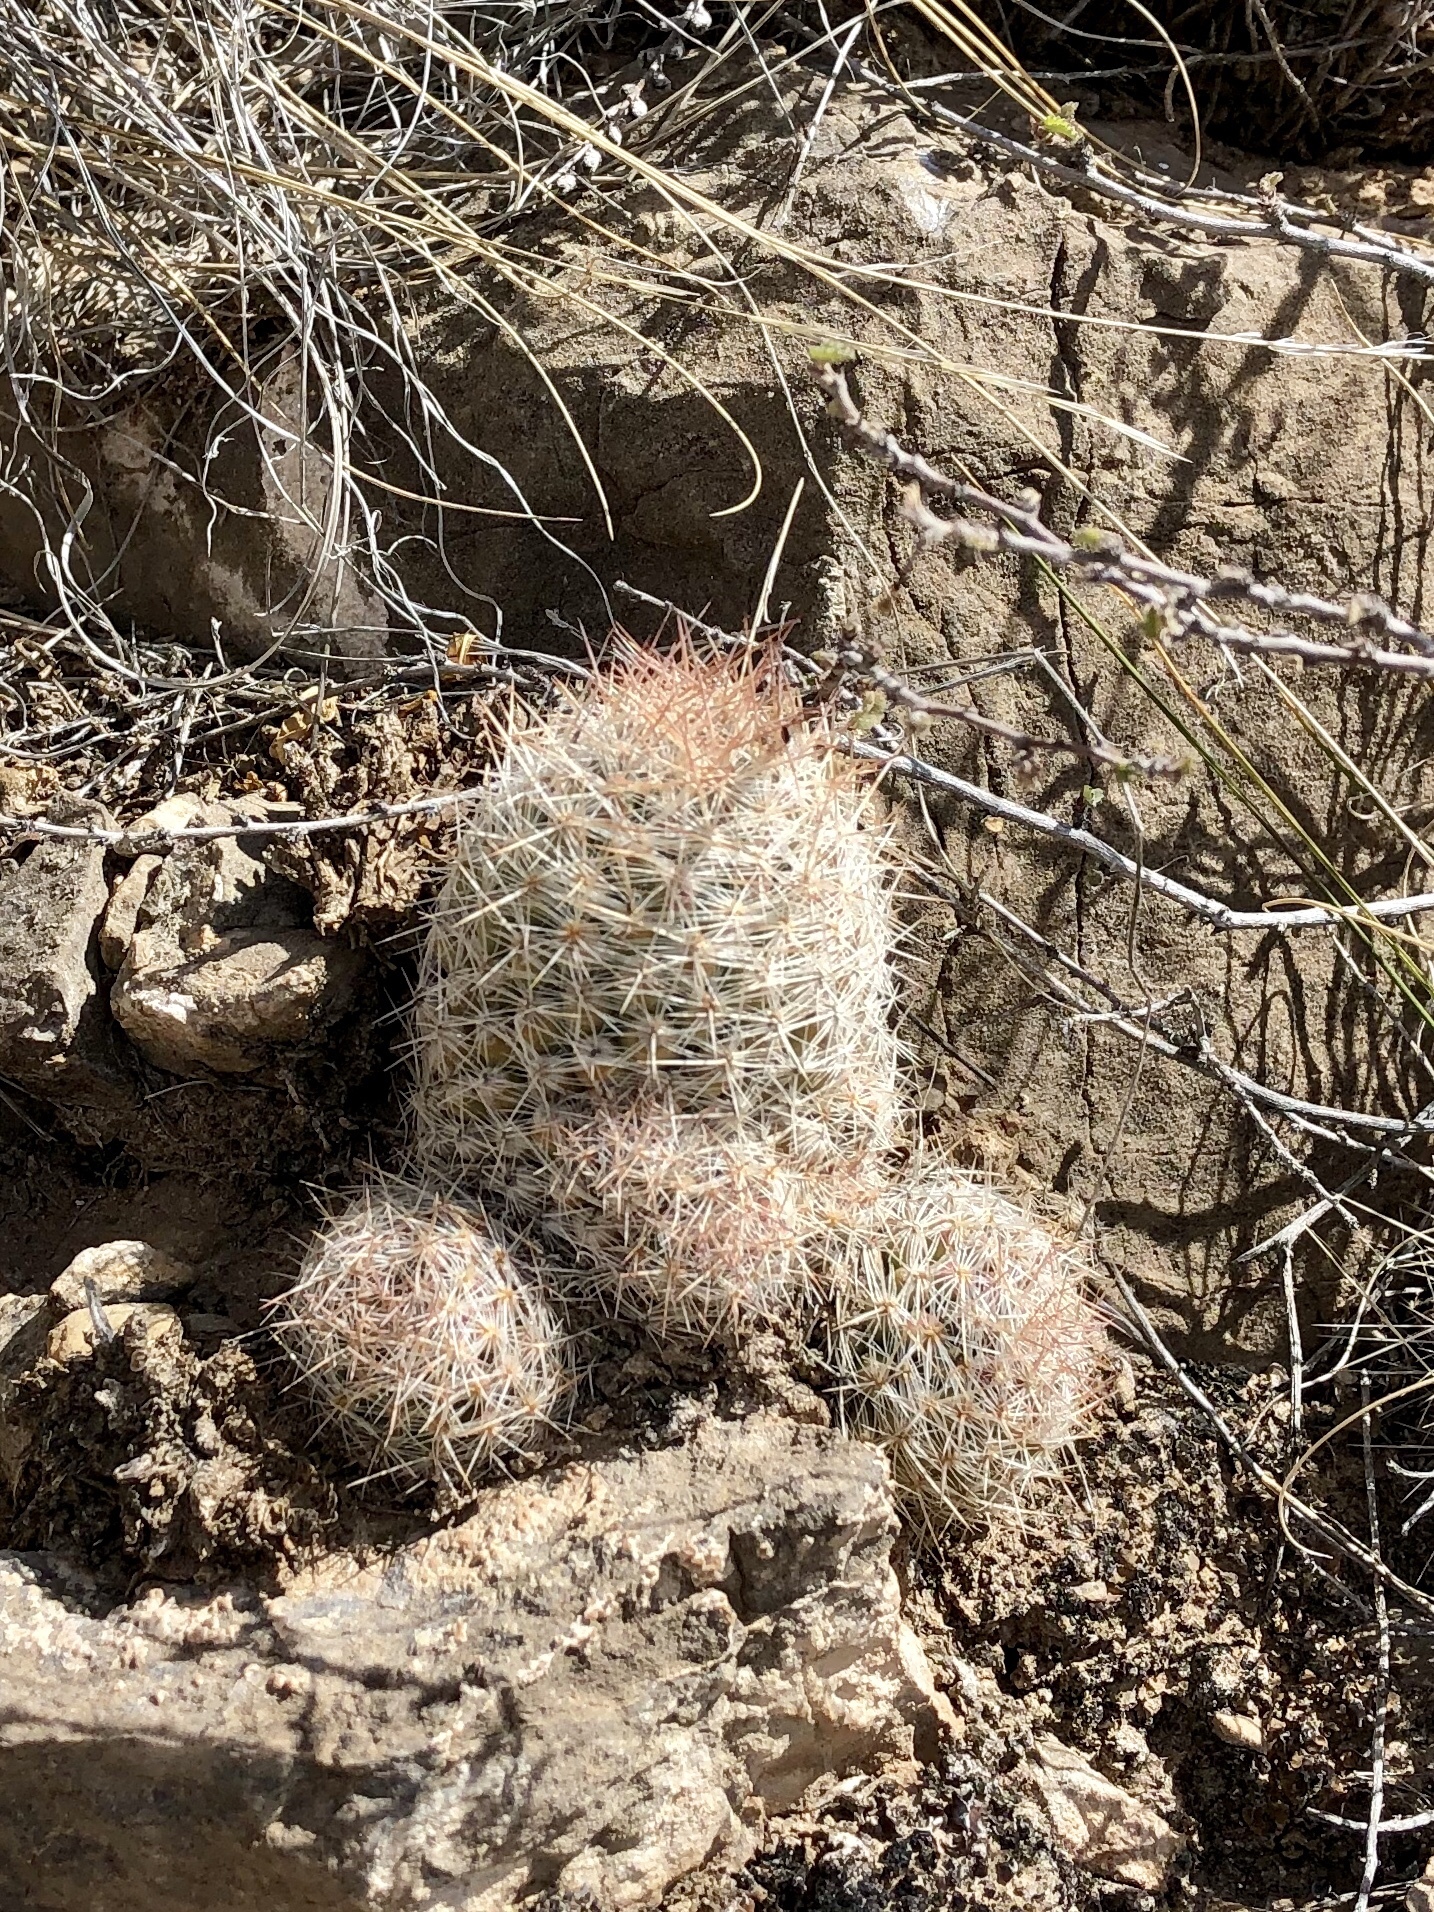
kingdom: Plantae
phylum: Tracheophyta
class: Magnoliopsida
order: Caryophyllales
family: Cactaceae
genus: Pelecyphora
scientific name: Pelecyphora tuberculosa
